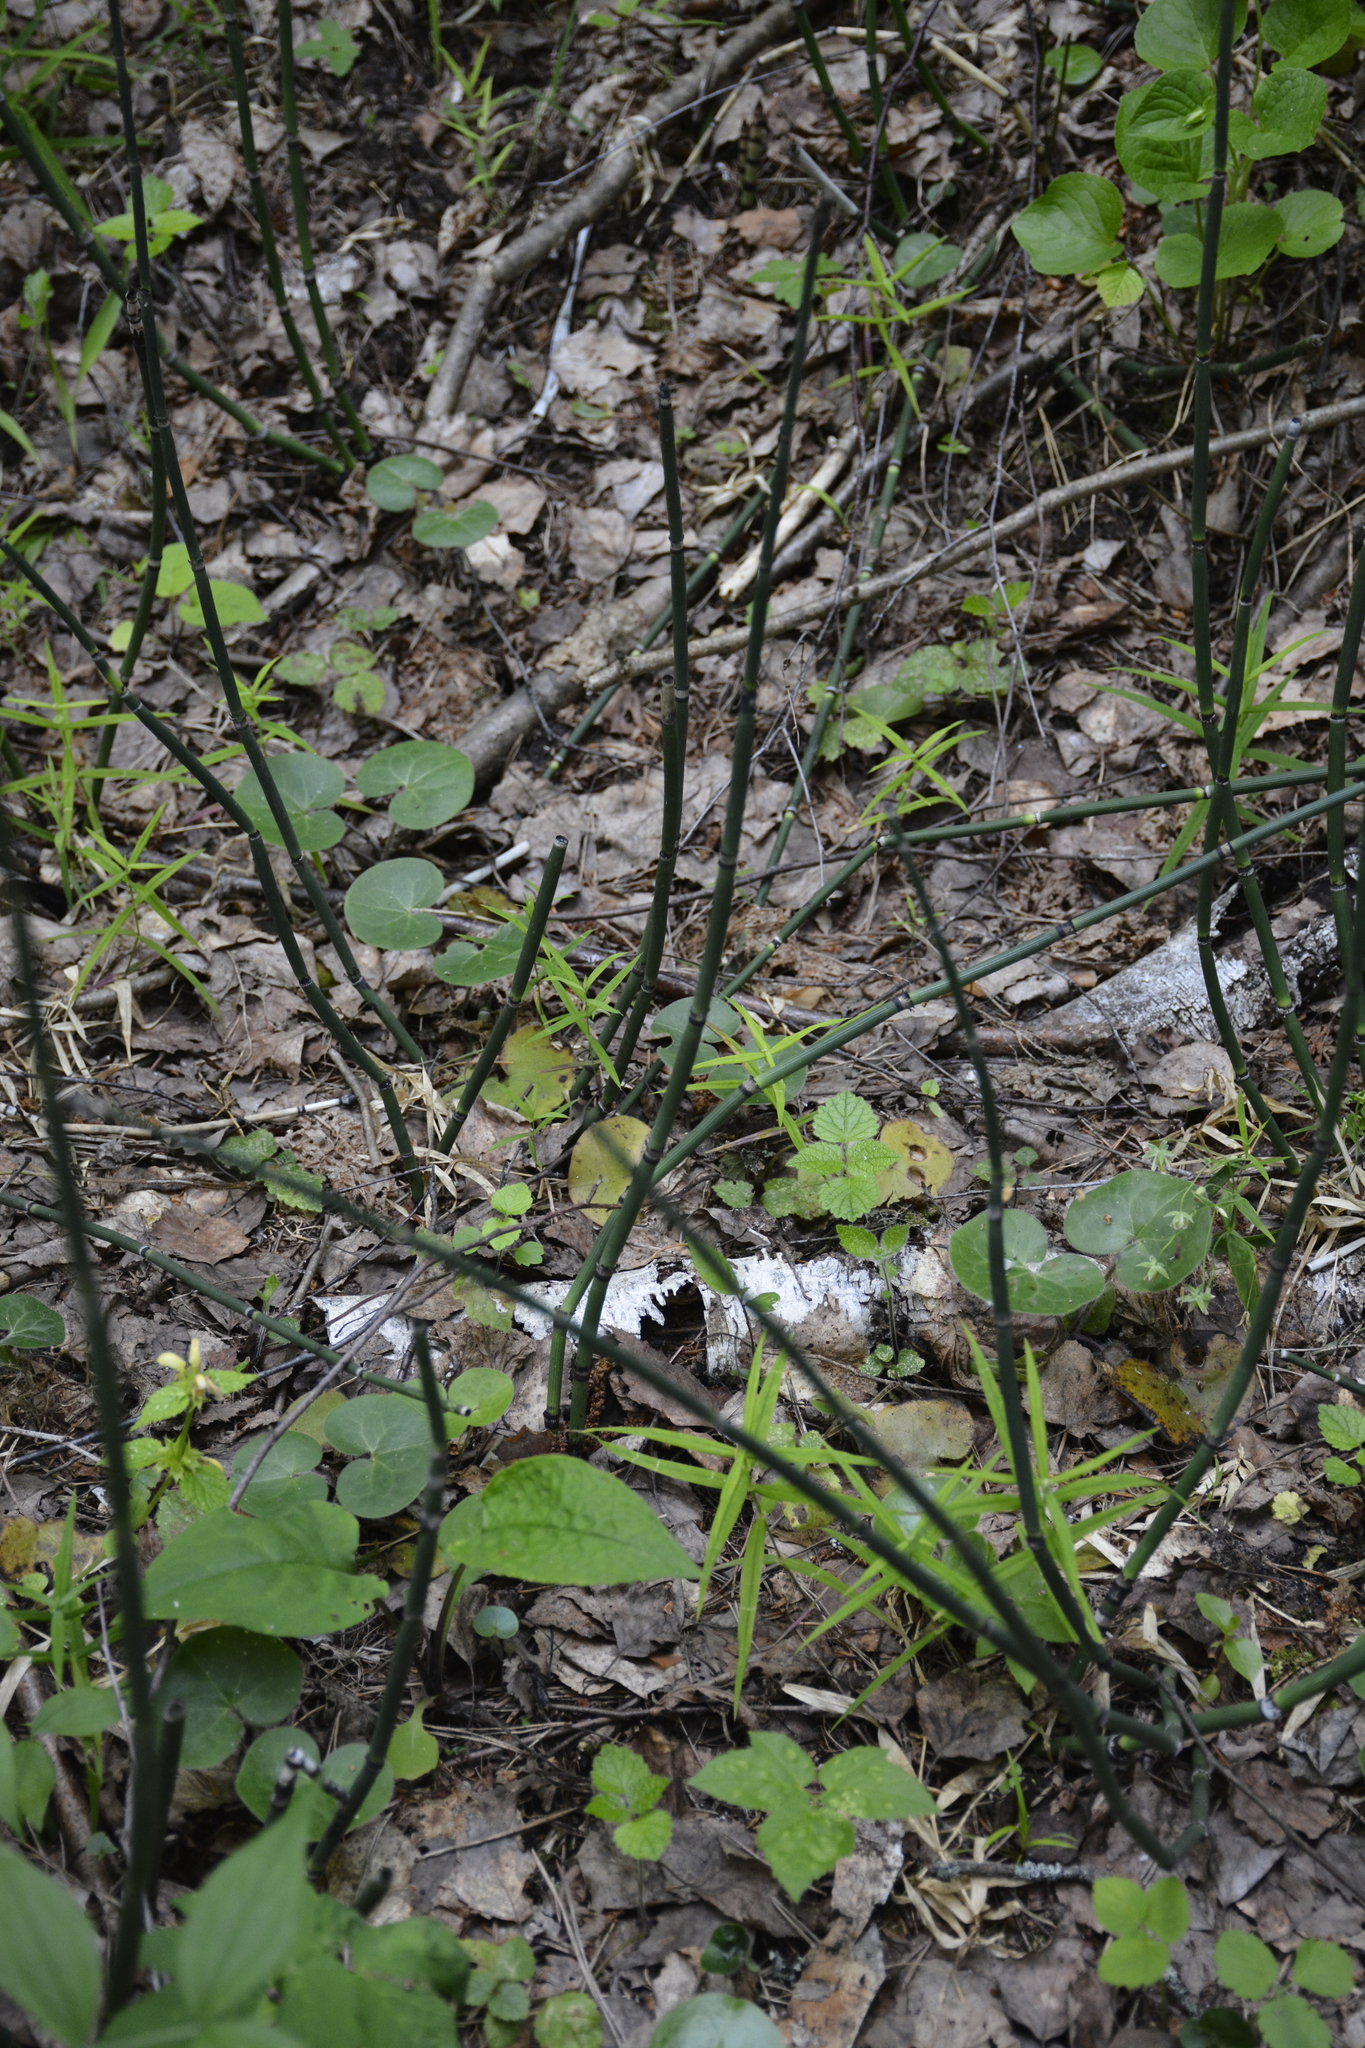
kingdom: Plantae
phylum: Tracheophyta
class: Polypodiopsida
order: Equisetales
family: Equisetaceae
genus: Equisetum
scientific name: Equisetum hyemale
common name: Rough horsetail
